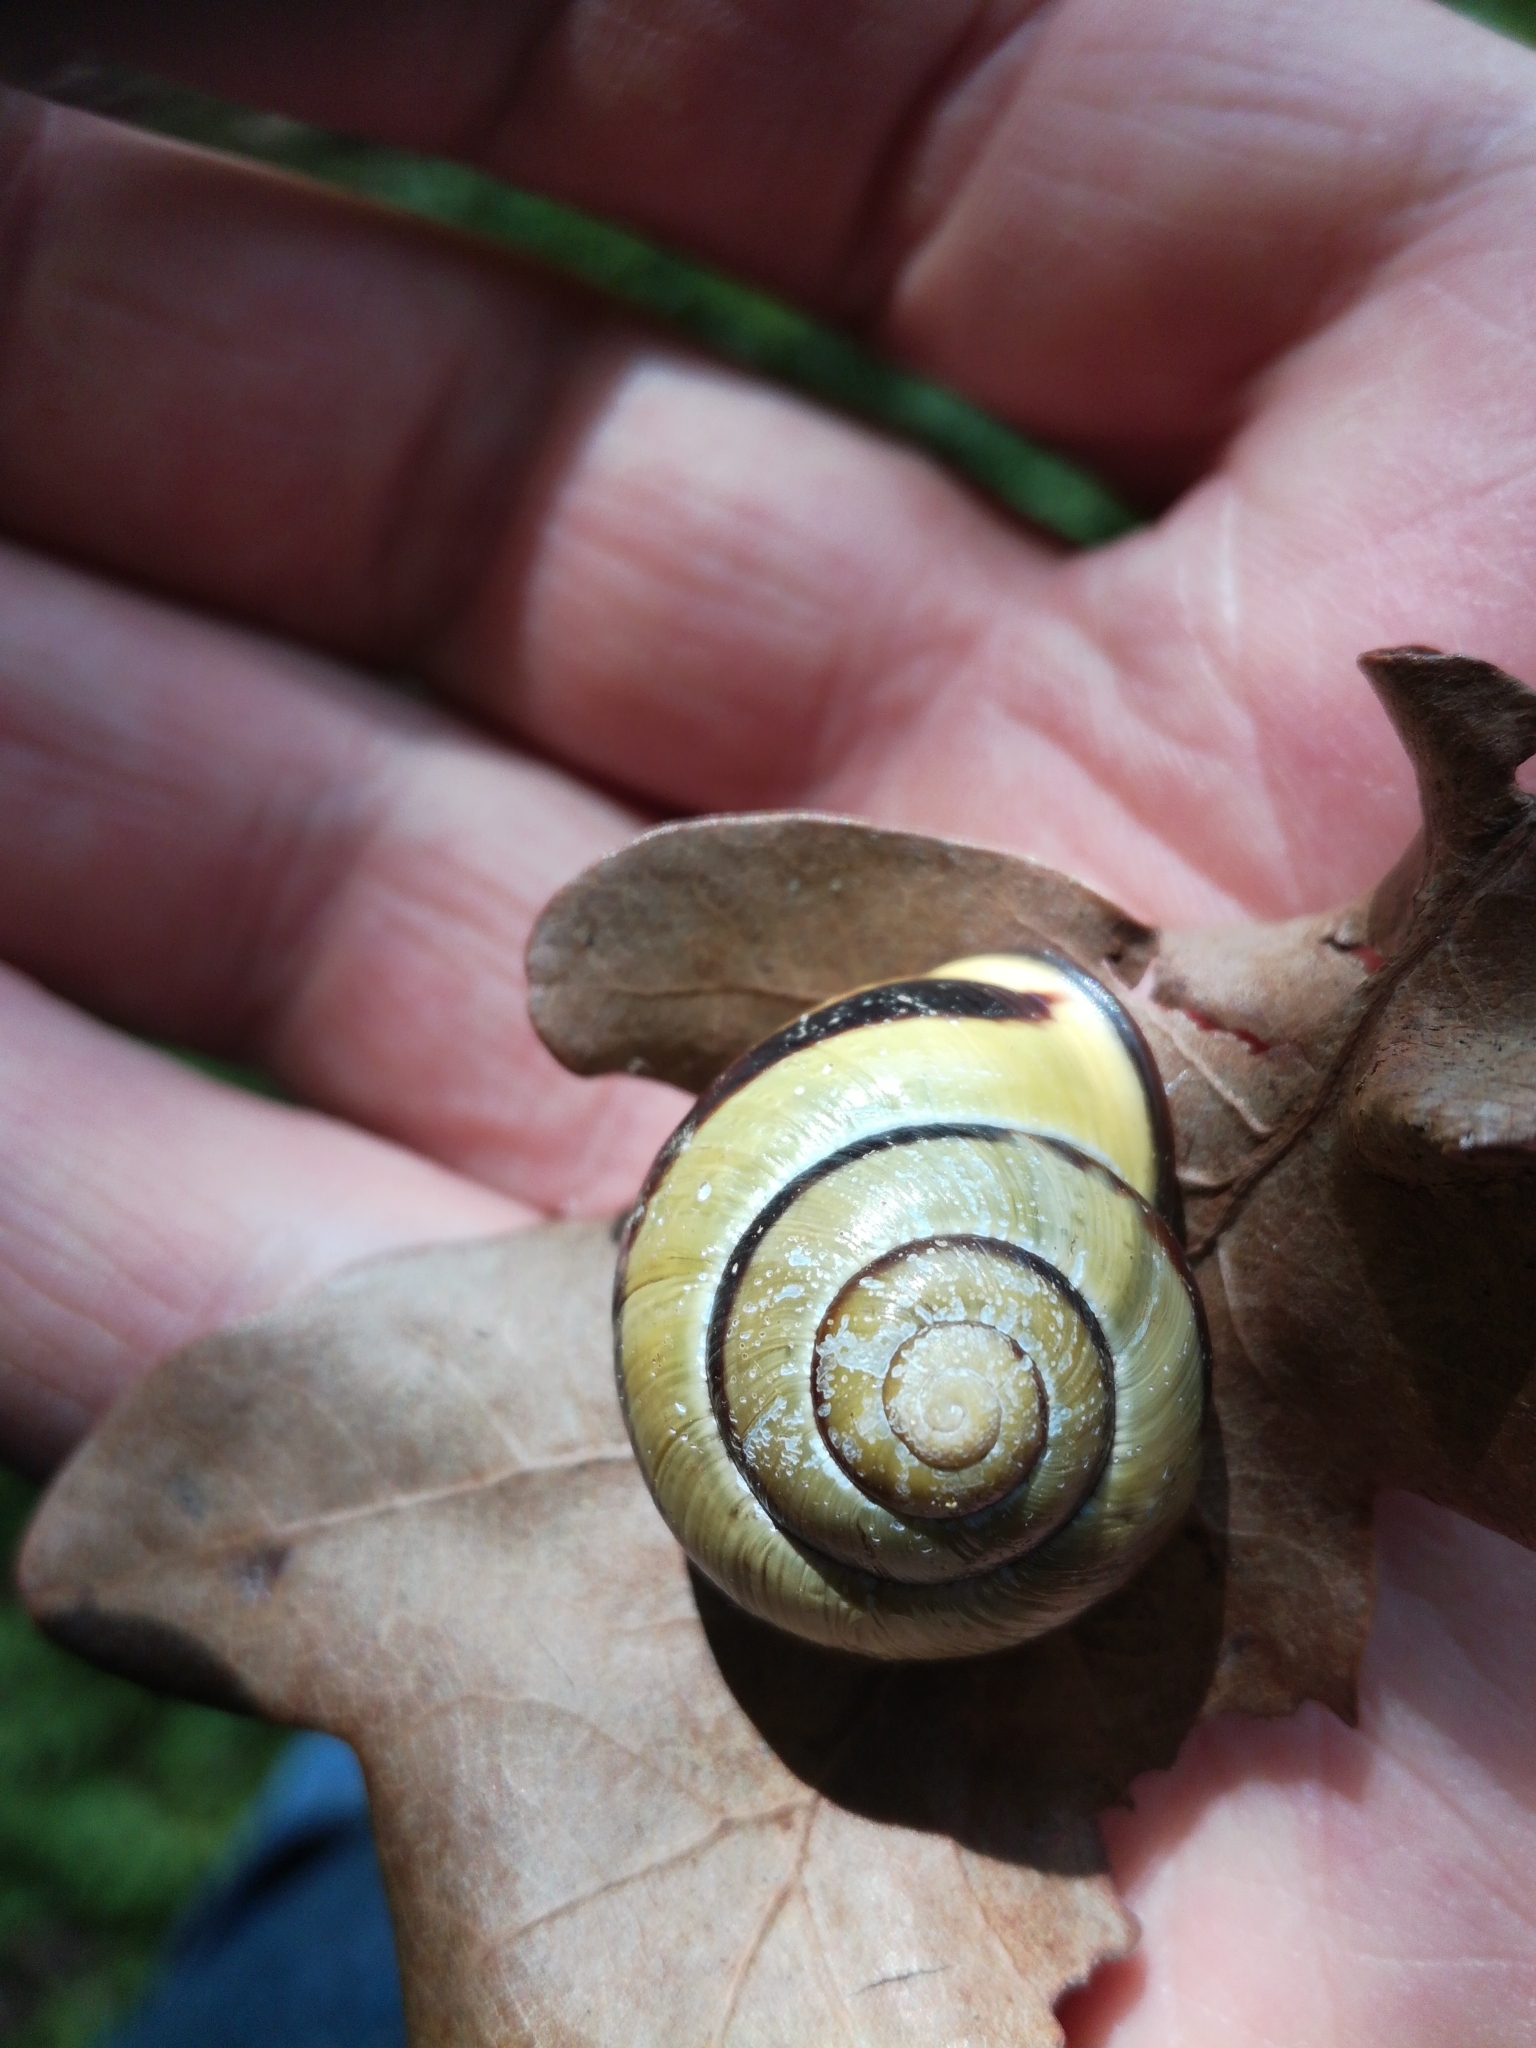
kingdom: Animalia
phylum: Mollusca
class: Gastropoda
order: Stylommatophora
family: Helicidae
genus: Cepaea
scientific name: Cepaea nemoralis
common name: Grovesnail
